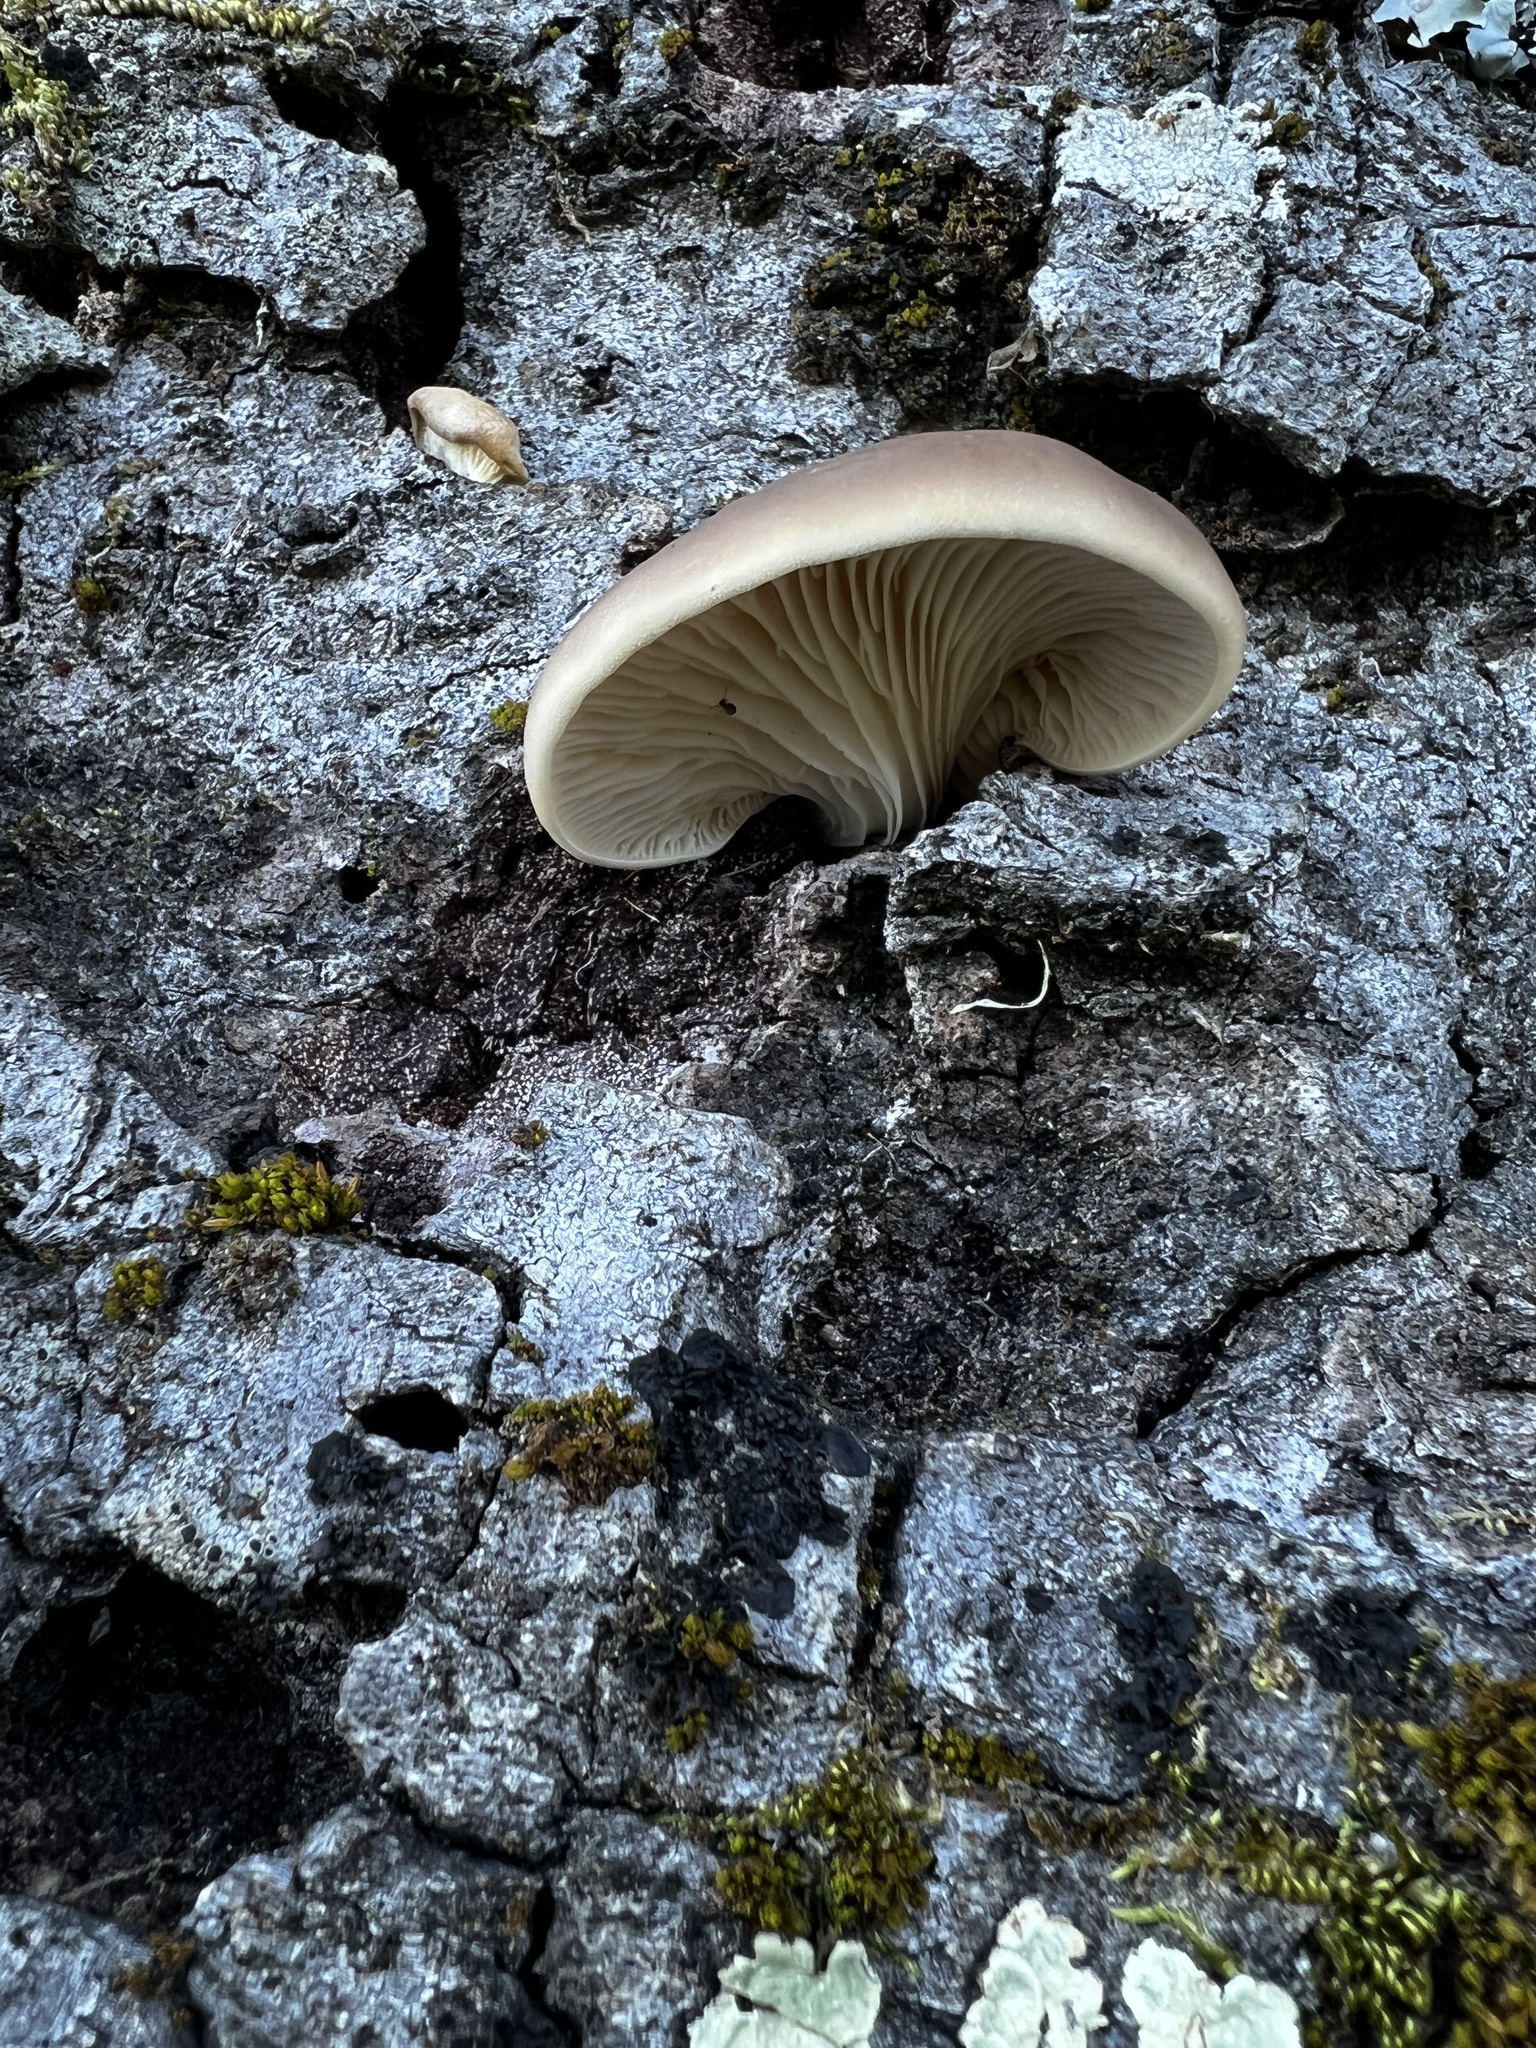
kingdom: Fungi
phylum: Basidiomycota
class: Agaricomycetes
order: Agaricales
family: Pleurotaceae
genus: Pleurotus
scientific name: Pleurotus ostreatus
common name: Oyster mushroom
